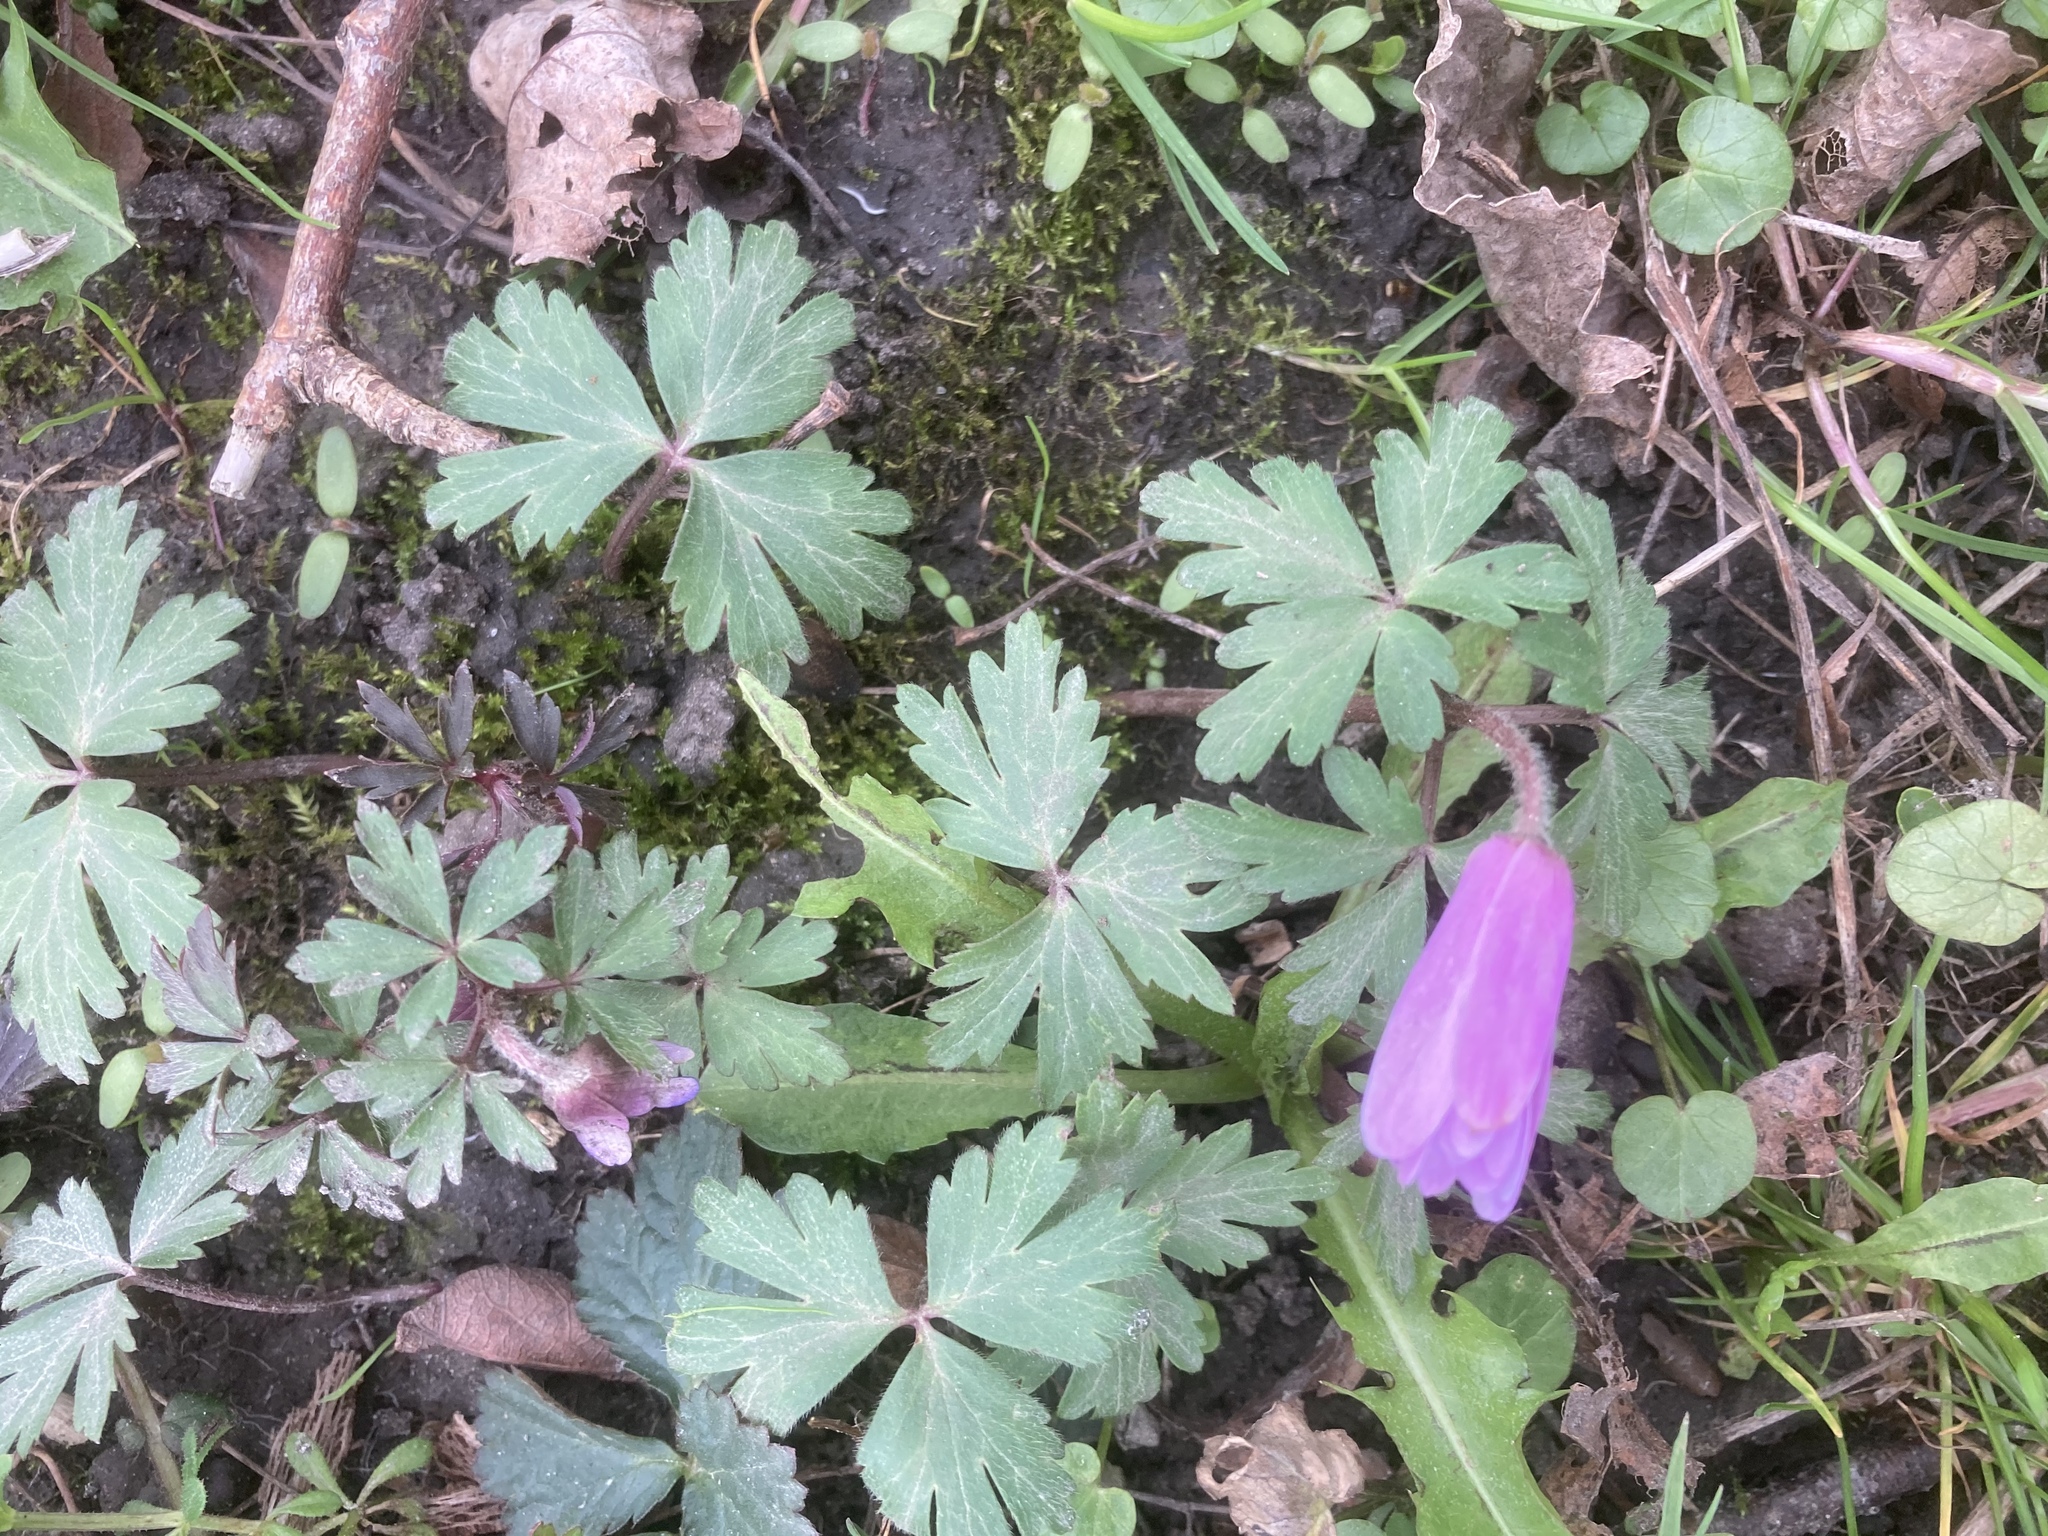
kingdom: Plantae
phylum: Tracheophyta
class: Magnoliopsida
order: Ranunculales
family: Ranunculaceae
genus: Anemone
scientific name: Anemone blanda
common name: Balkan anemone
